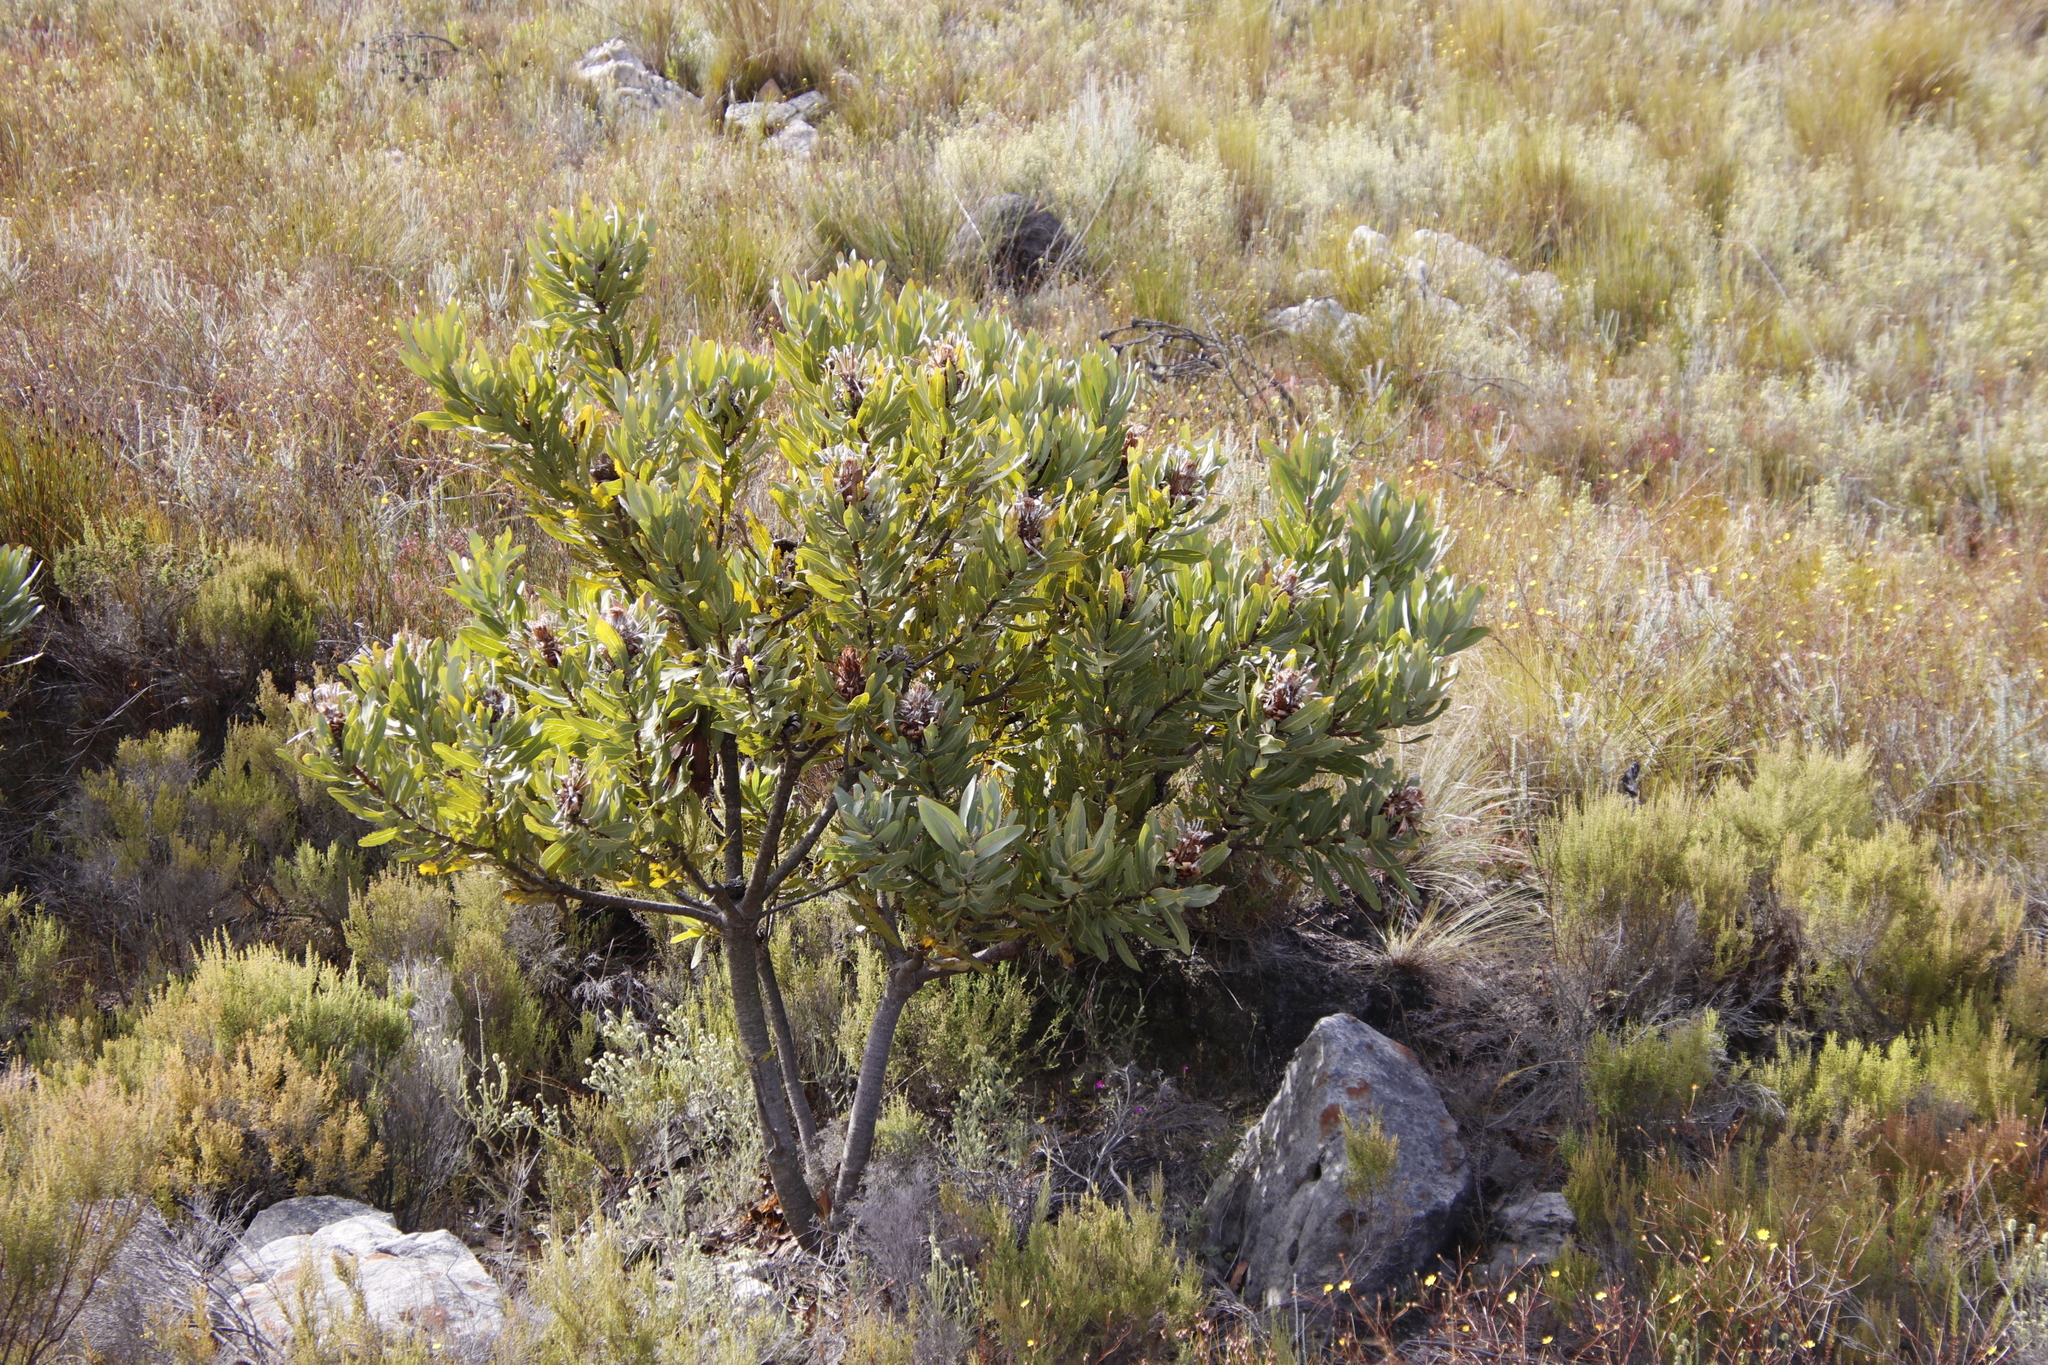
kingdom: Plantae
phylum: Tracheophyta
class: Magnoliopsida
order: Proteales
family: Proteaceae
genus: Protea
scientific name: Protea laurifolia
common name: Grey-leaf sugarbsh
